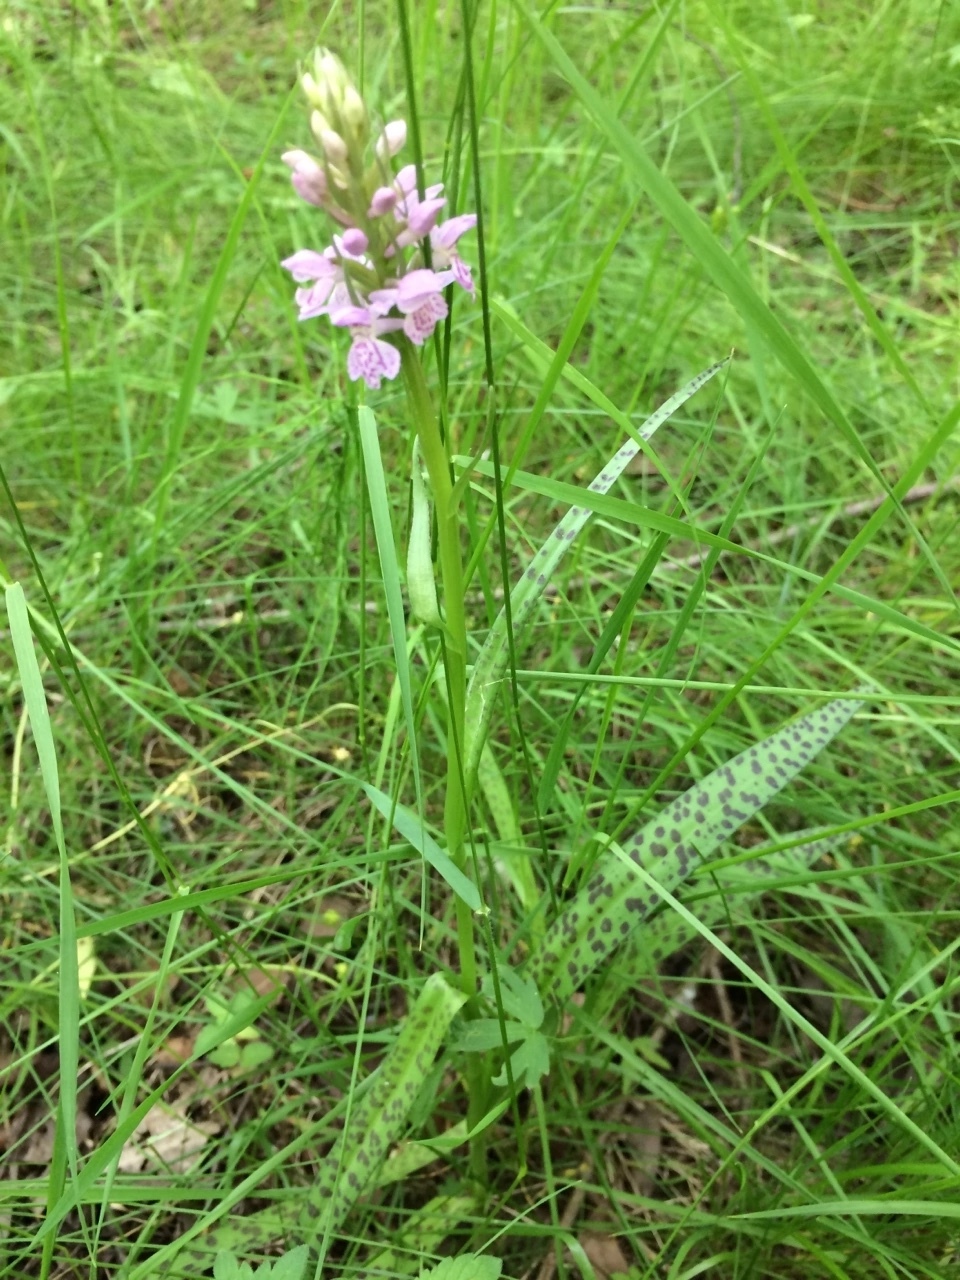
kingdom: Plantae
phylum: Tracheophyta
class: Liliopsida
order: Asparagales
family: Orchidaceae
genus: Dactylorhiza
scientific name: Dactylorhiza majalis
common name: Marsh orchid
